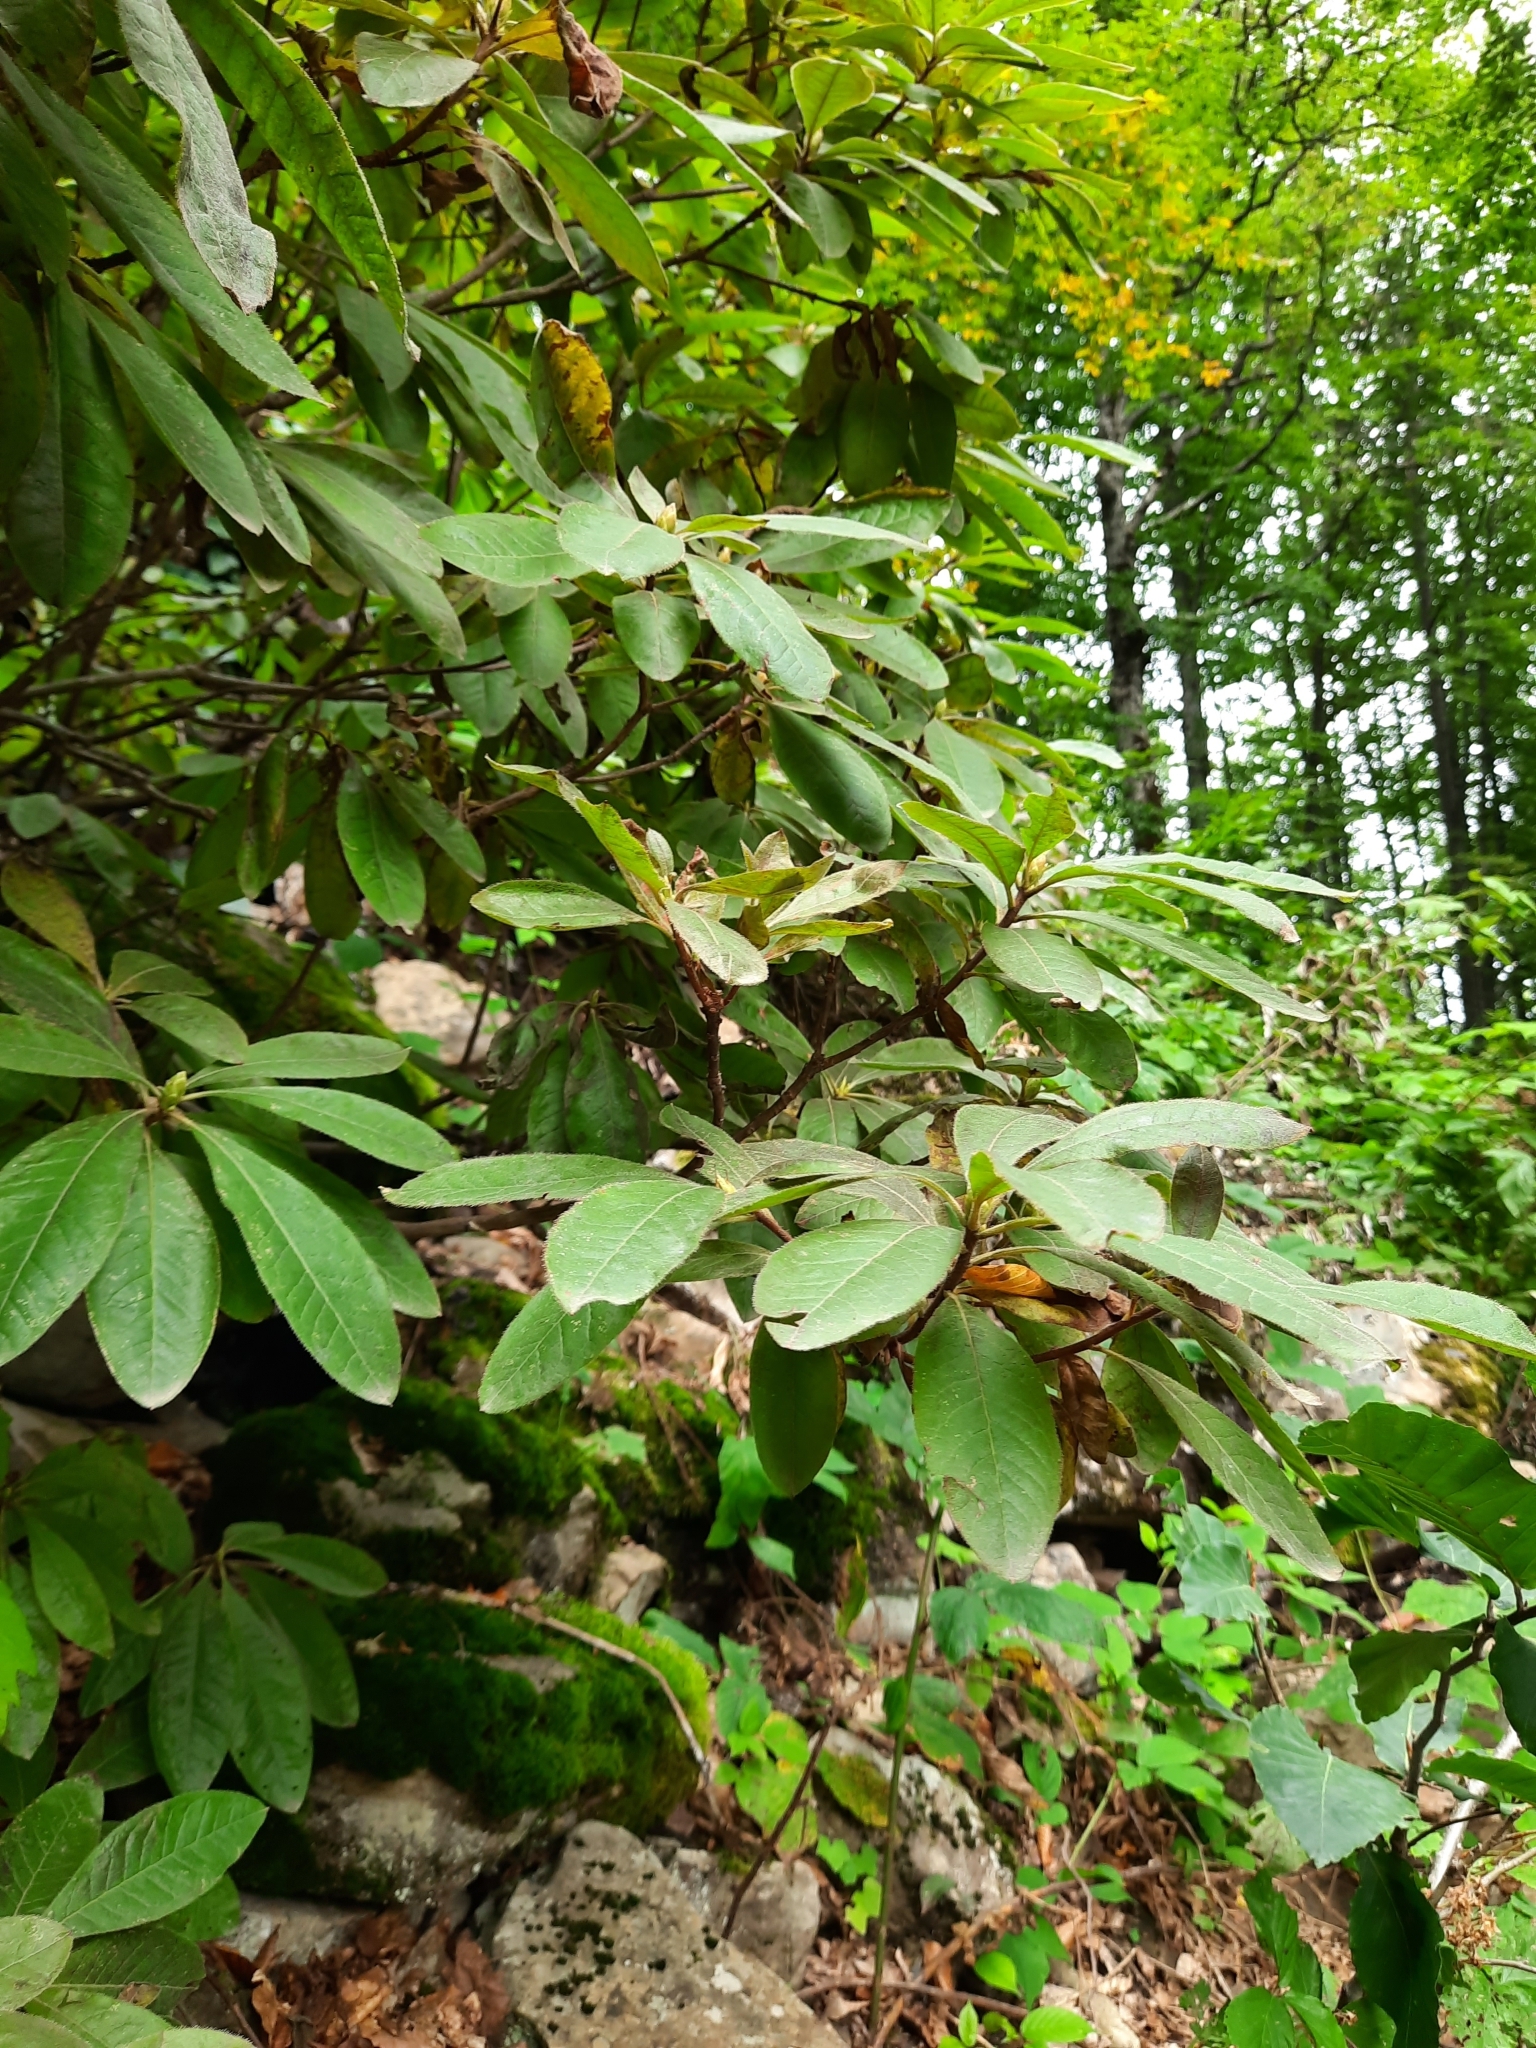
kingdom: Plantae
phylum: Tracheophyta
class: Magnoliopsida
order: Ericales
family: Ericaceae
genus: Rhododendron
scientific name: Rhododendron ponticum
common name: Rhododendron
